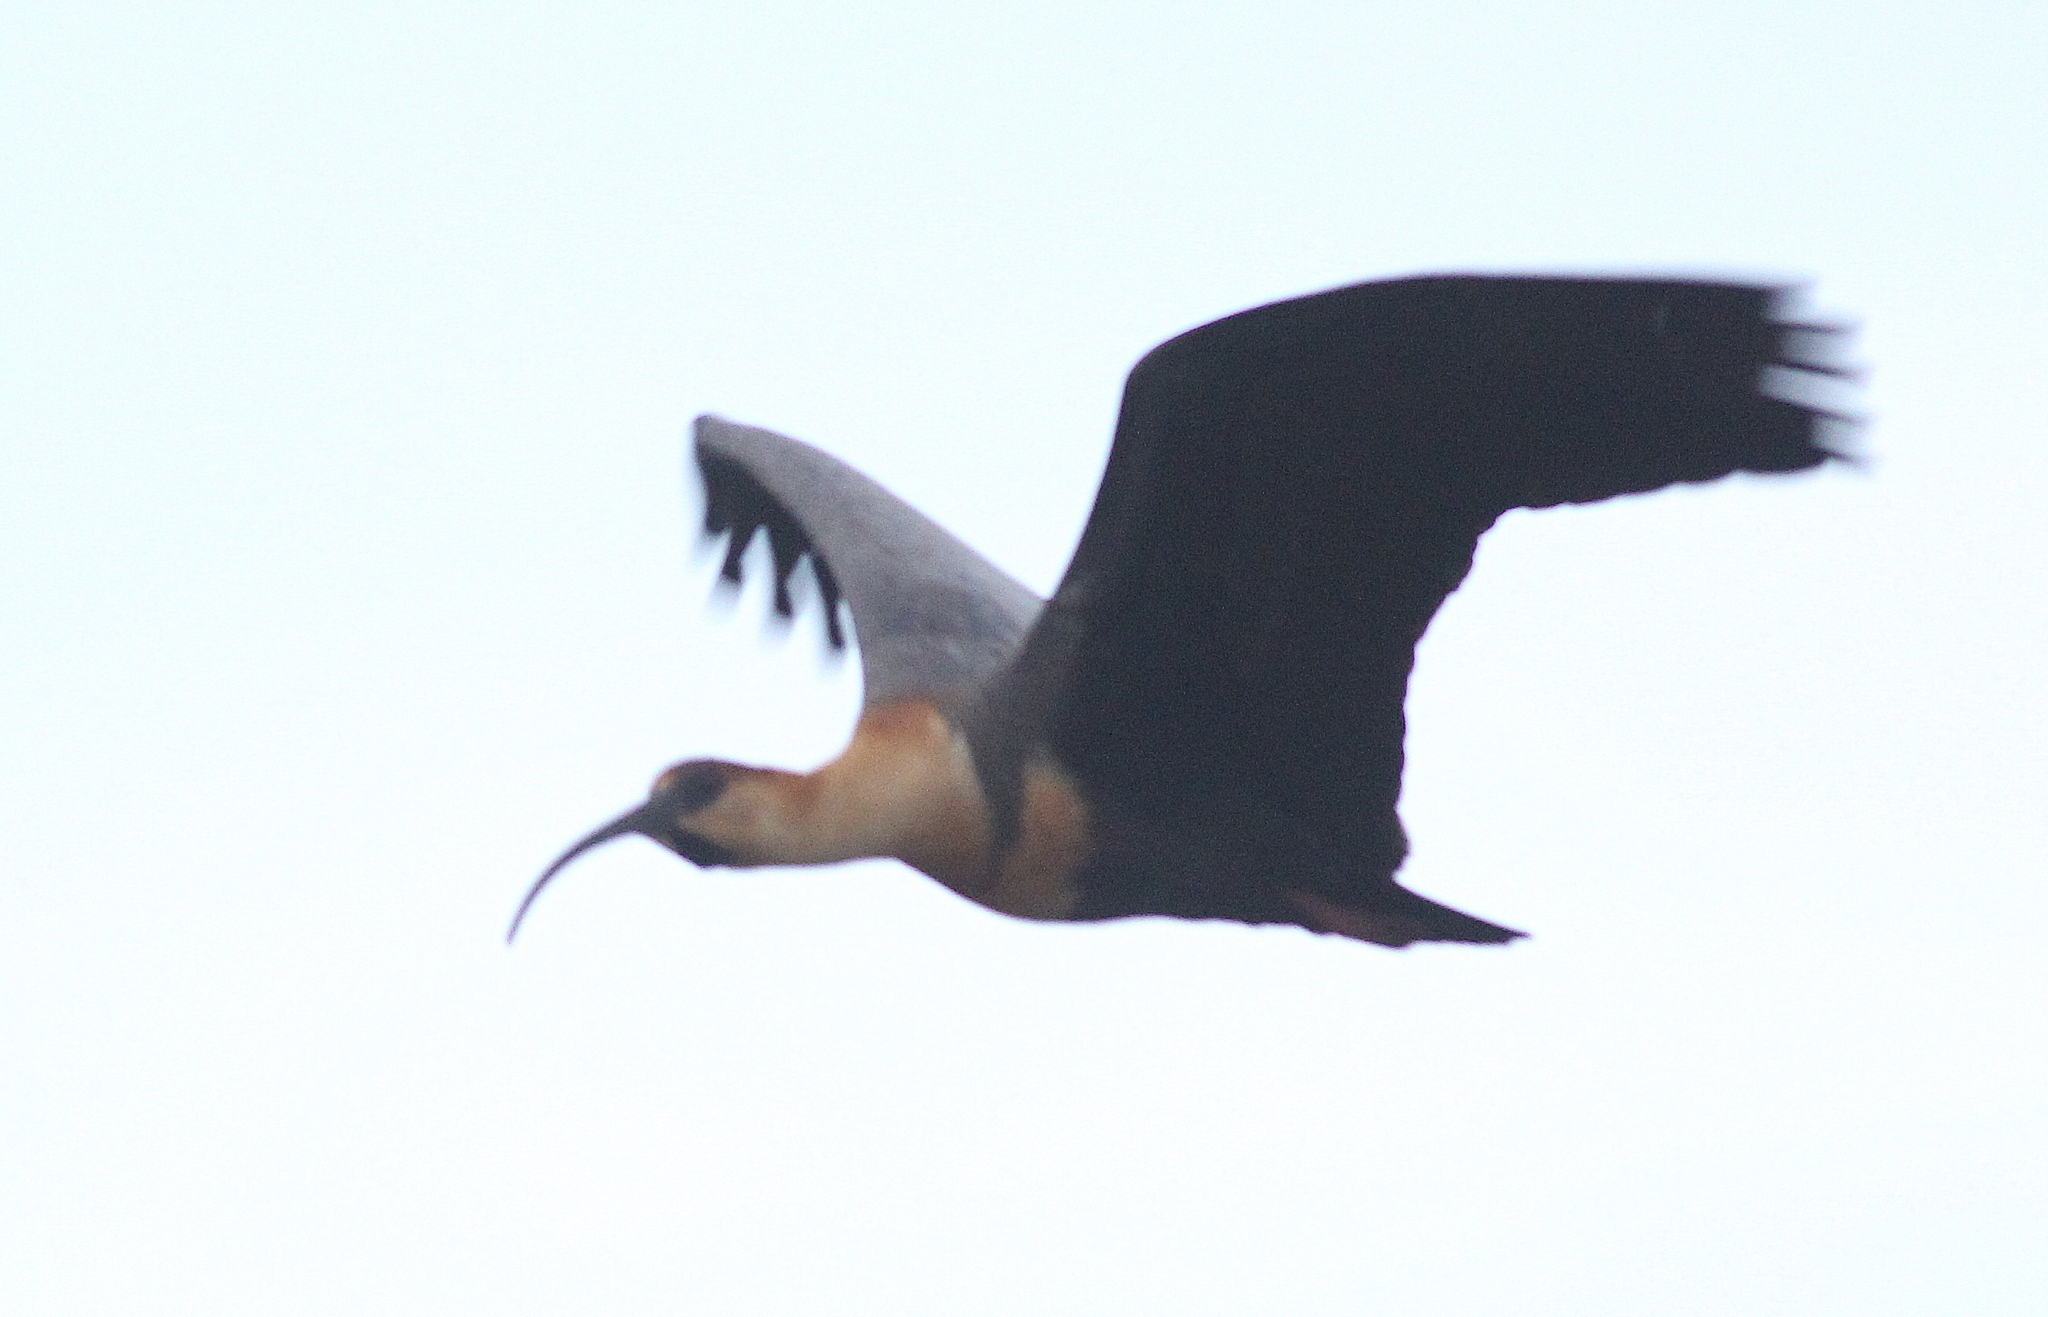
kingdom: Animalia
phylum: Chordata
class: Aves
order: Pelecaniformes
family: Threskiornithidae
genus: Theristicus
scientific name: Theristicus melanopis
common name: Black-faced ibis
